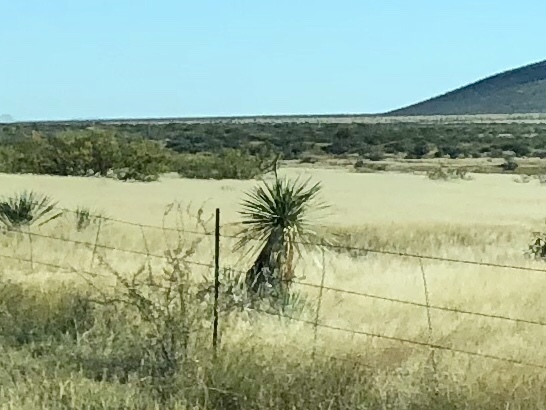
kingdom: Plantae
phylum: Tracheophyta
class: Liliopsida
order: Asparagales
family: Asparagaceae
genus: Yucca
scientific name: Yucca elata
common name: Palmella
